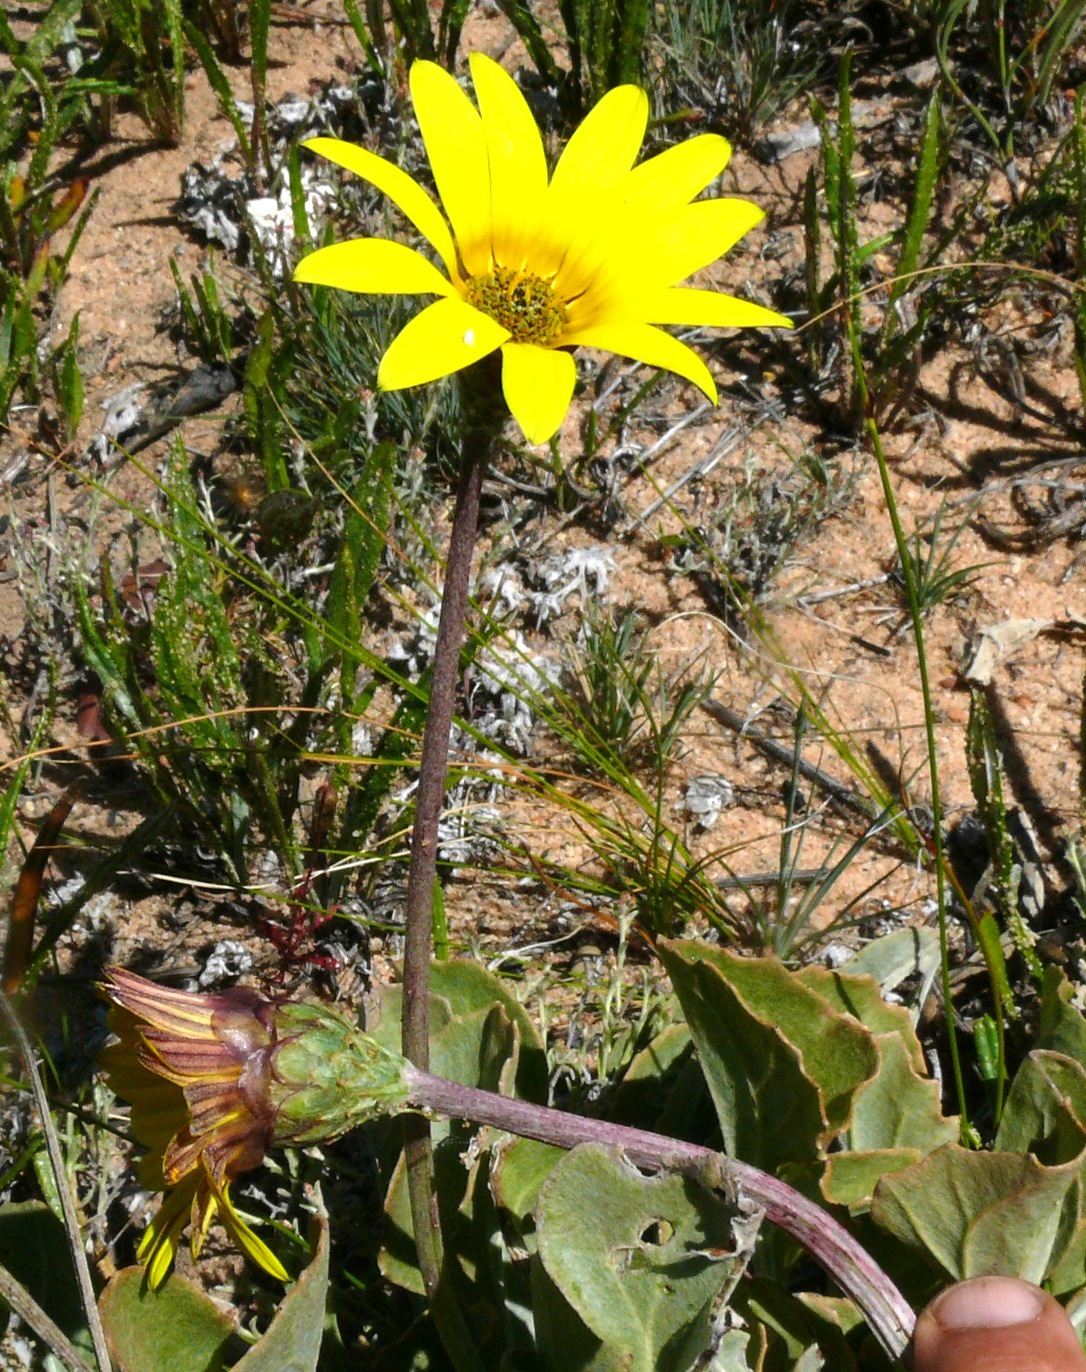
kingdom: Plantae
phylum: Tracheophyta
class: Magnoliopsida
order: Asterales
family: Asteraceae
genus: Arctotis
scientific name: Arctotis adpressa
